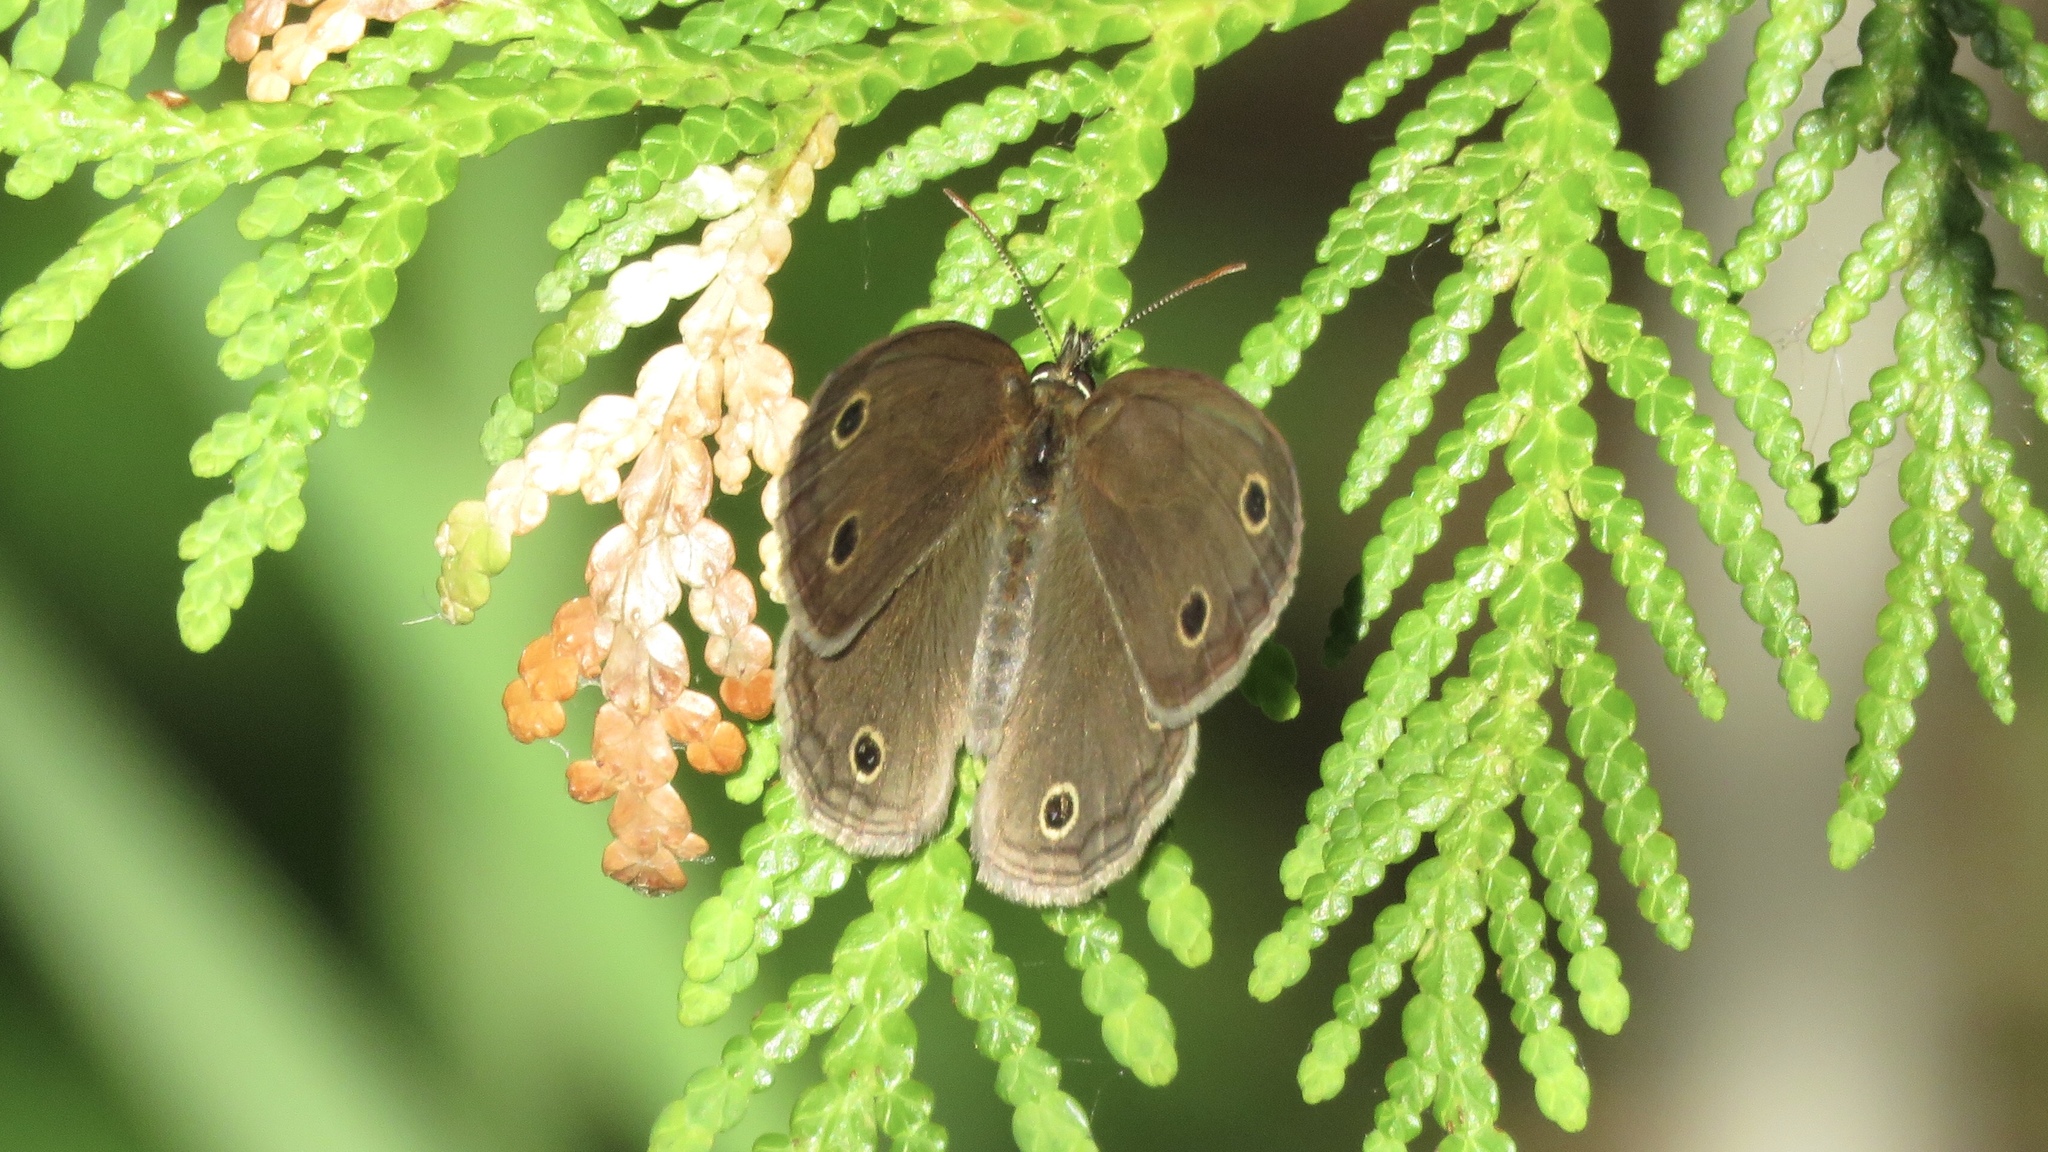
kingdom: Animalia
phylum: Arthropoda
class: Insecta
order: Lepidoptera
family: Nymphalidae
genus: Euptychia
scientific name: Euptychia cymela
